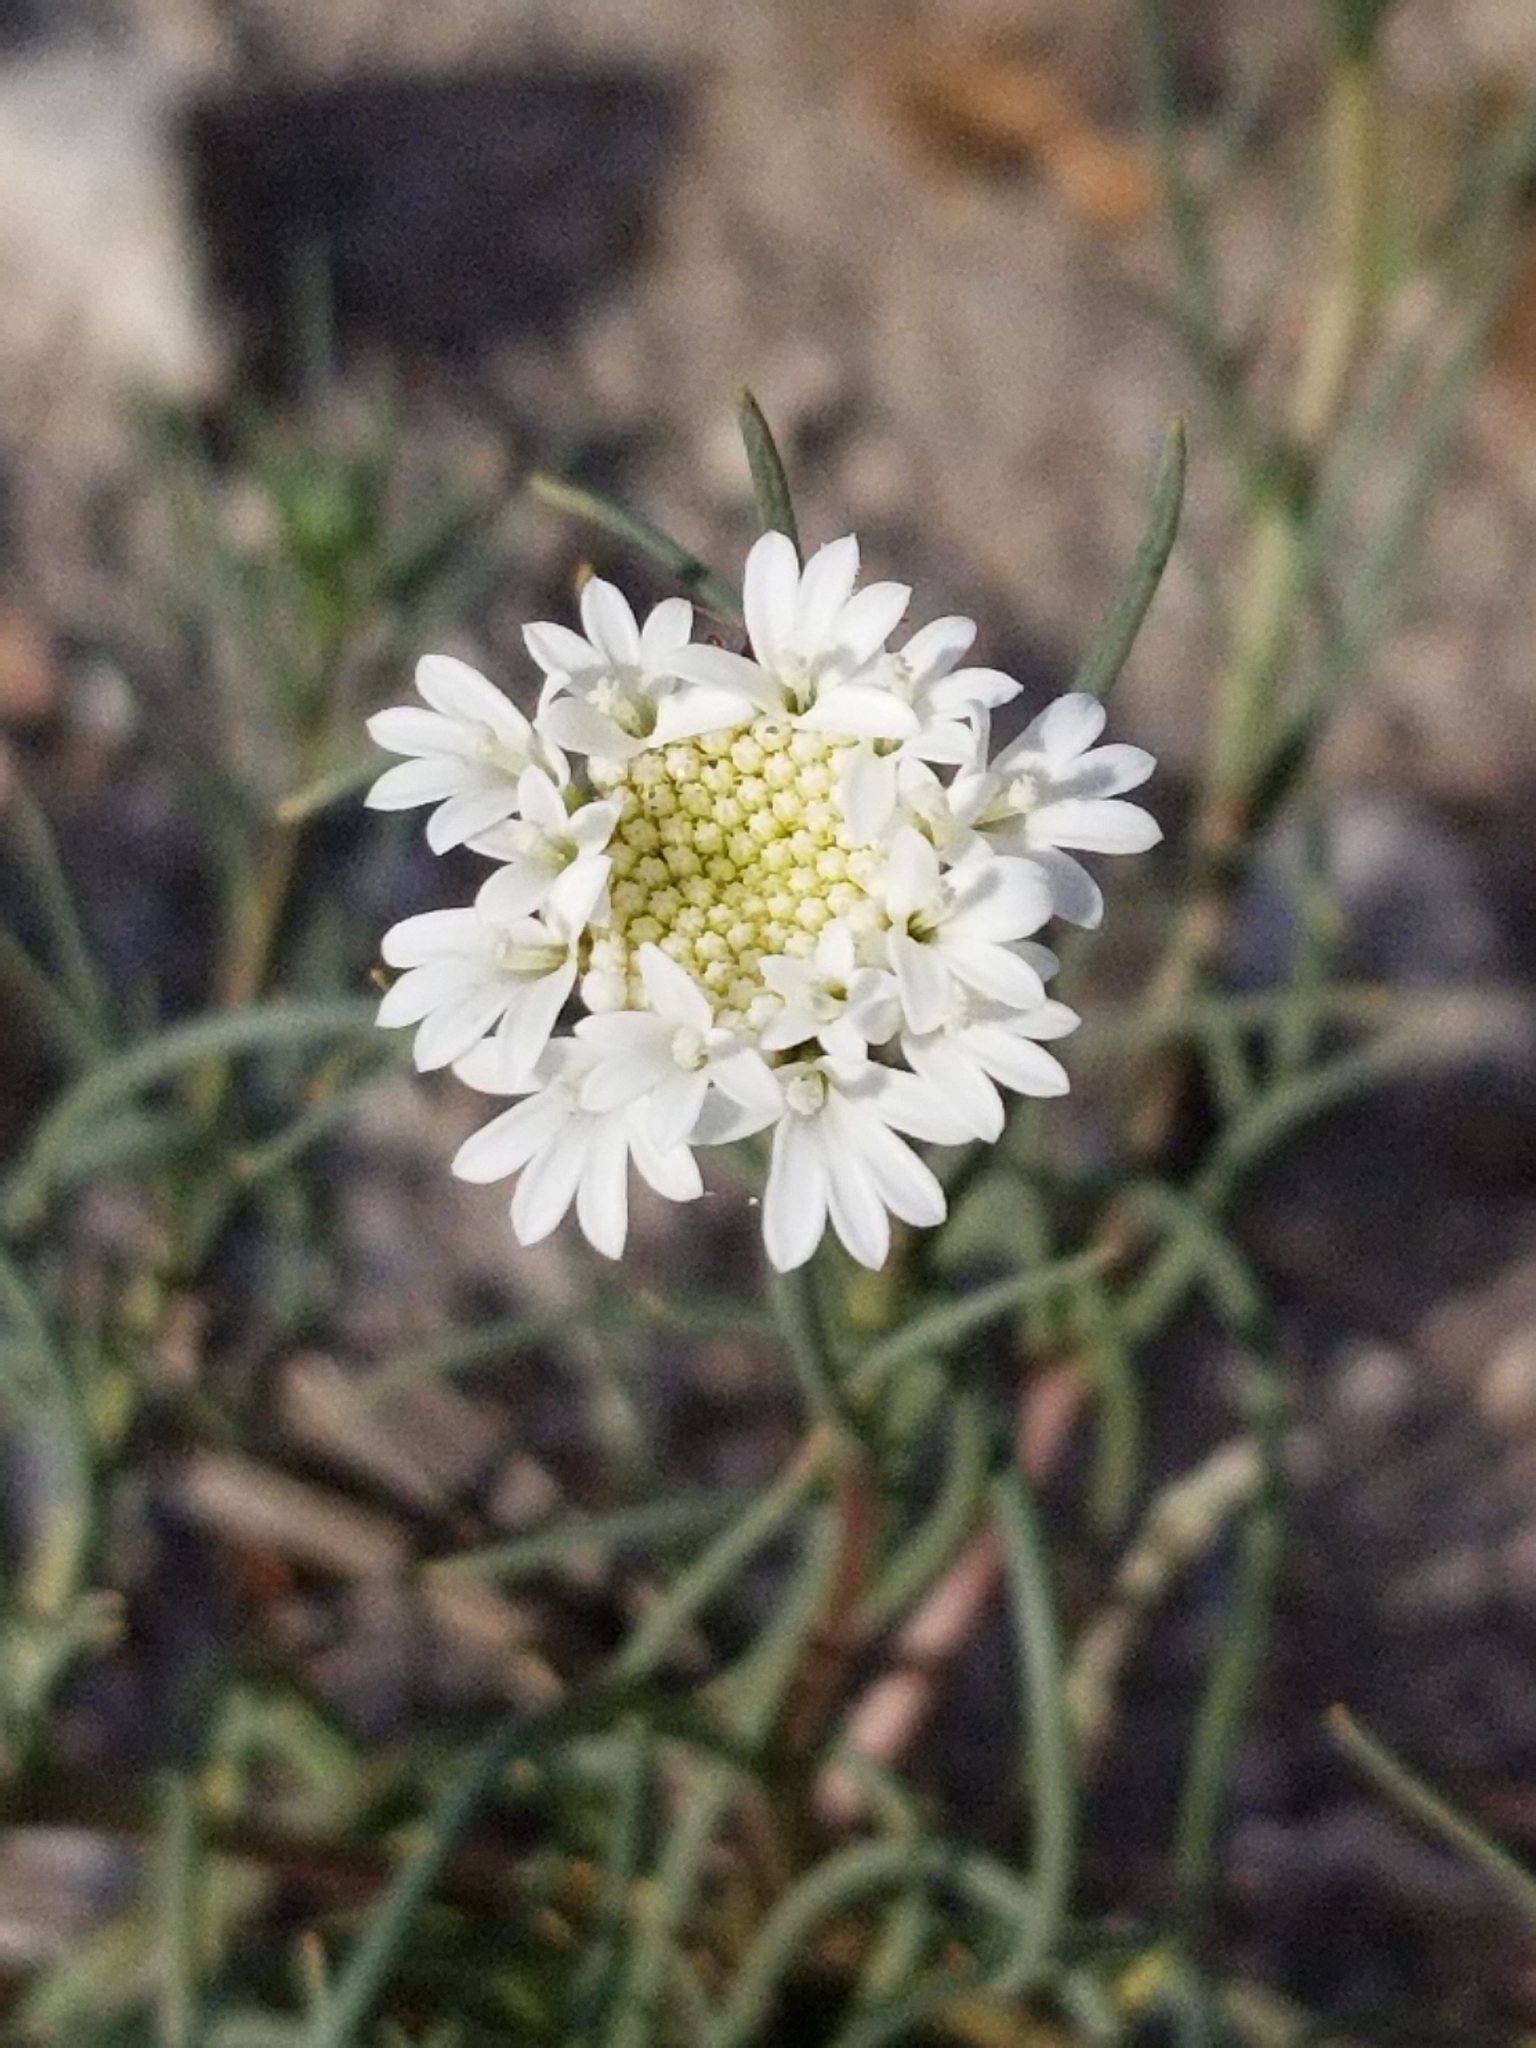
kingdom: Plantae
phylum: Tracheophyta
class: Magnoliopsida
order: Asterales
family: Asteraceae
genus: Chaenactis
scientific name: Chaenactis fremontii
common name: Fremont pincushion
